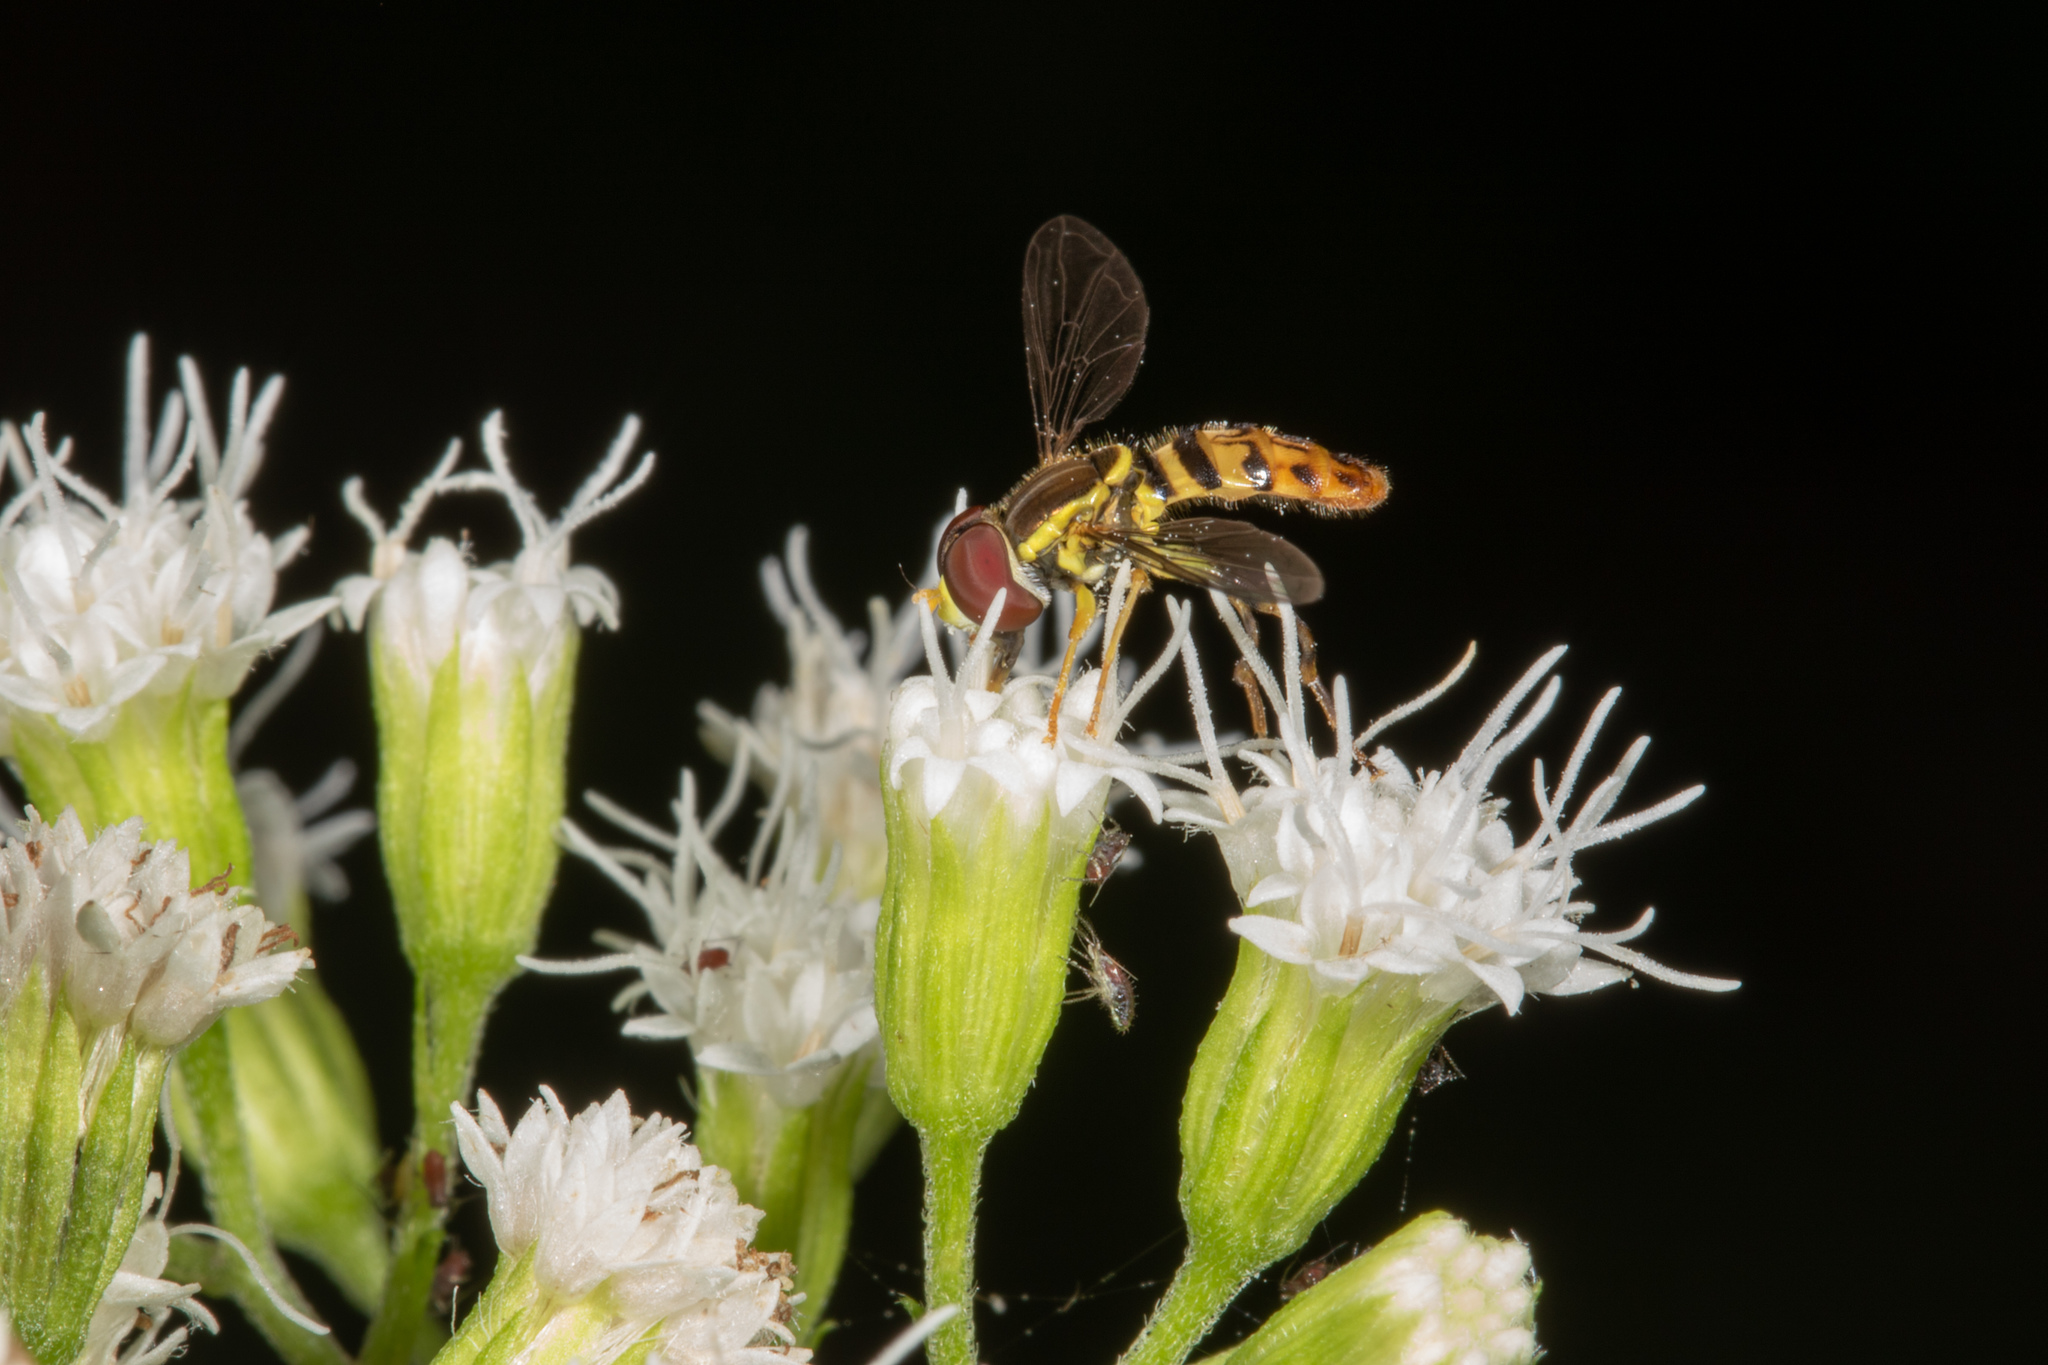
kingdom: Animalia
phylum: Arthropoda
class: Insecta
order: Diptera
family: Syrphidae
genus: Toxomerus
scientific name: Toxomerus geminatus
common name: Eastern calligrapher
